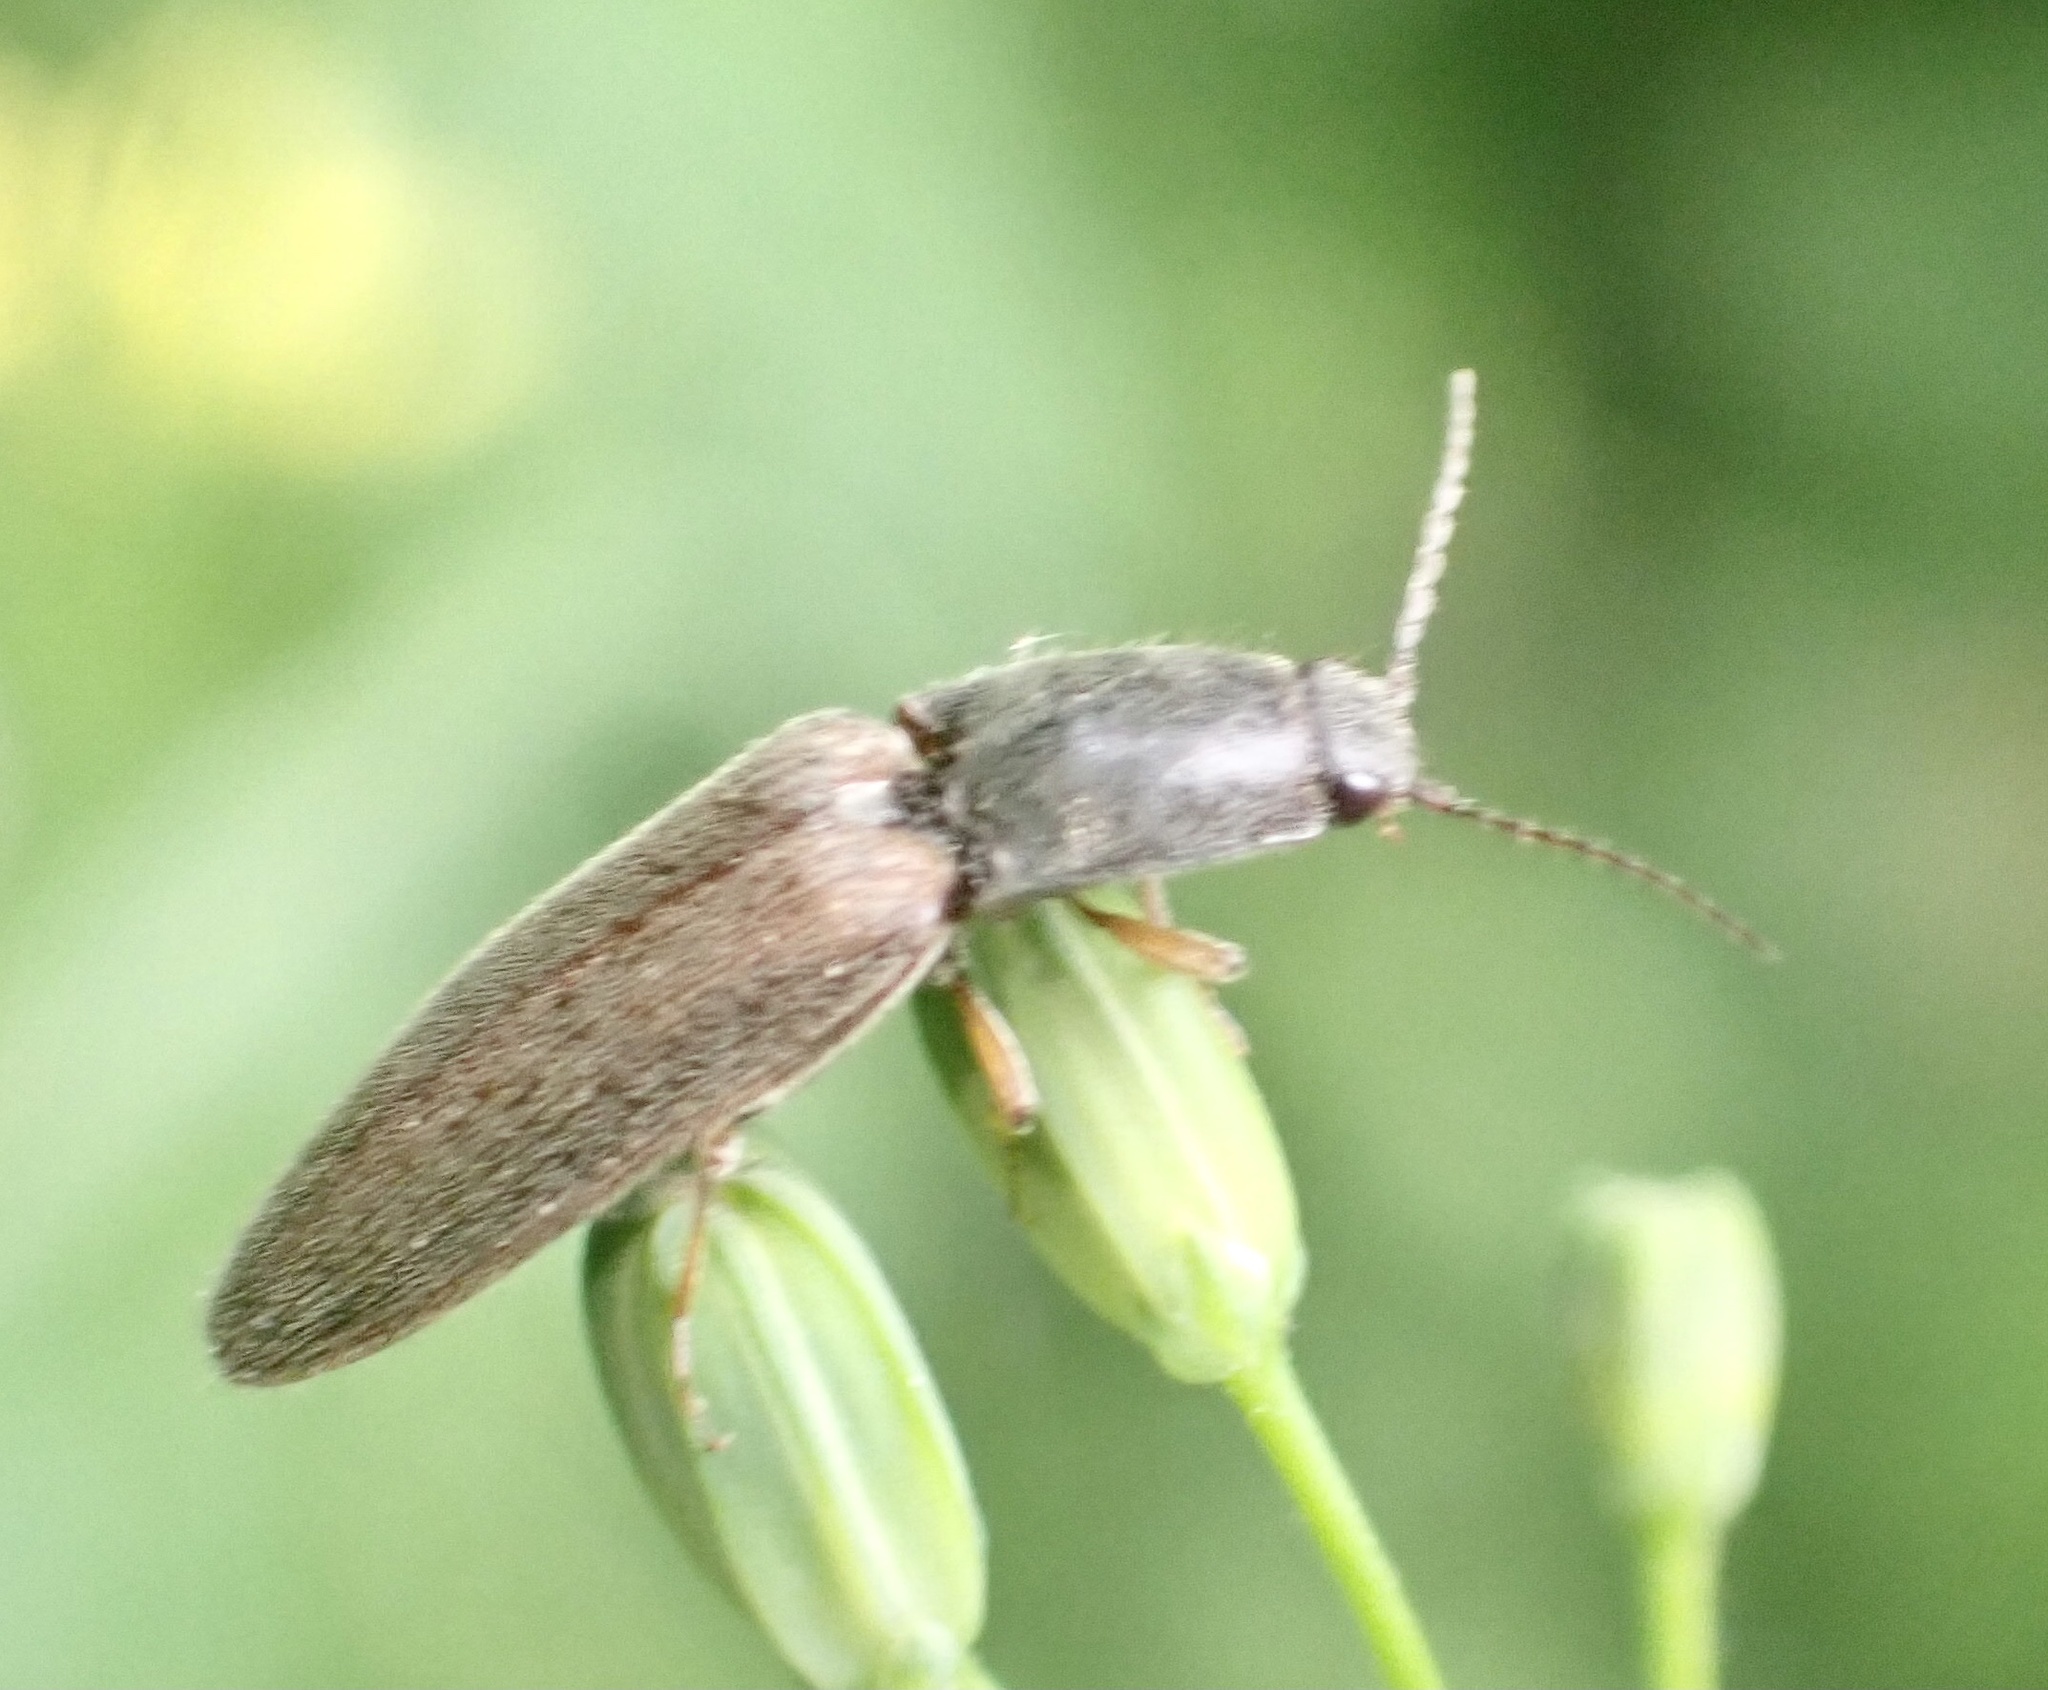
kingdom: Animalia
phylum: Arthropoda
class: Insecta
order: Coleoptera
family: Elateridae
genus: Athous
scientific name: Athous haemorrhoidalis
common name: Red-brown click beetle
